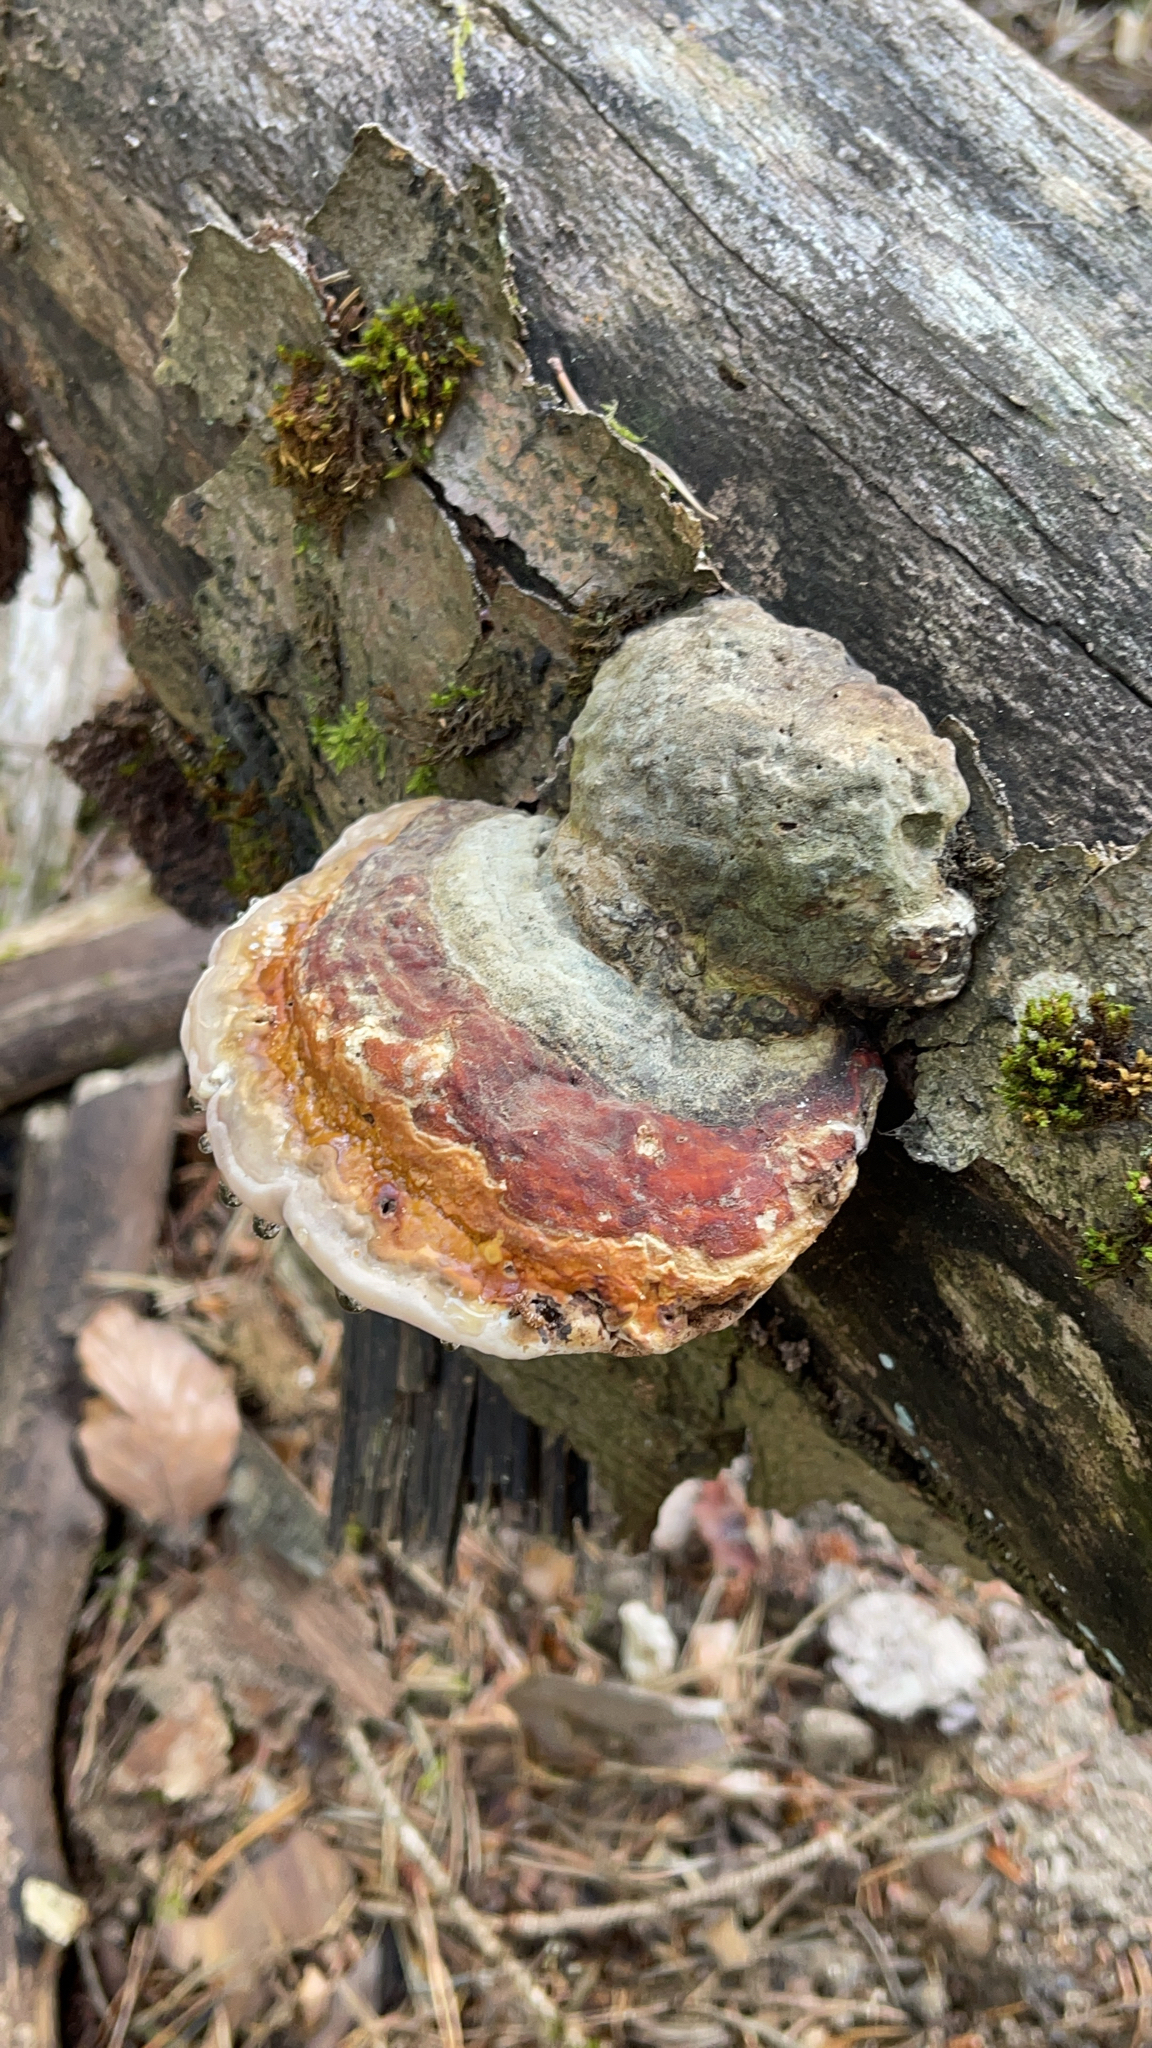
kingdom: Fungi
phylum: Basidiomycota
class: Agaricomycetes
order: Polyporales
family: Fomitopsidaceae
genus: Fomitopsis
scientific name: Fomitopsis pinicola
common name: Red-belted bracket
